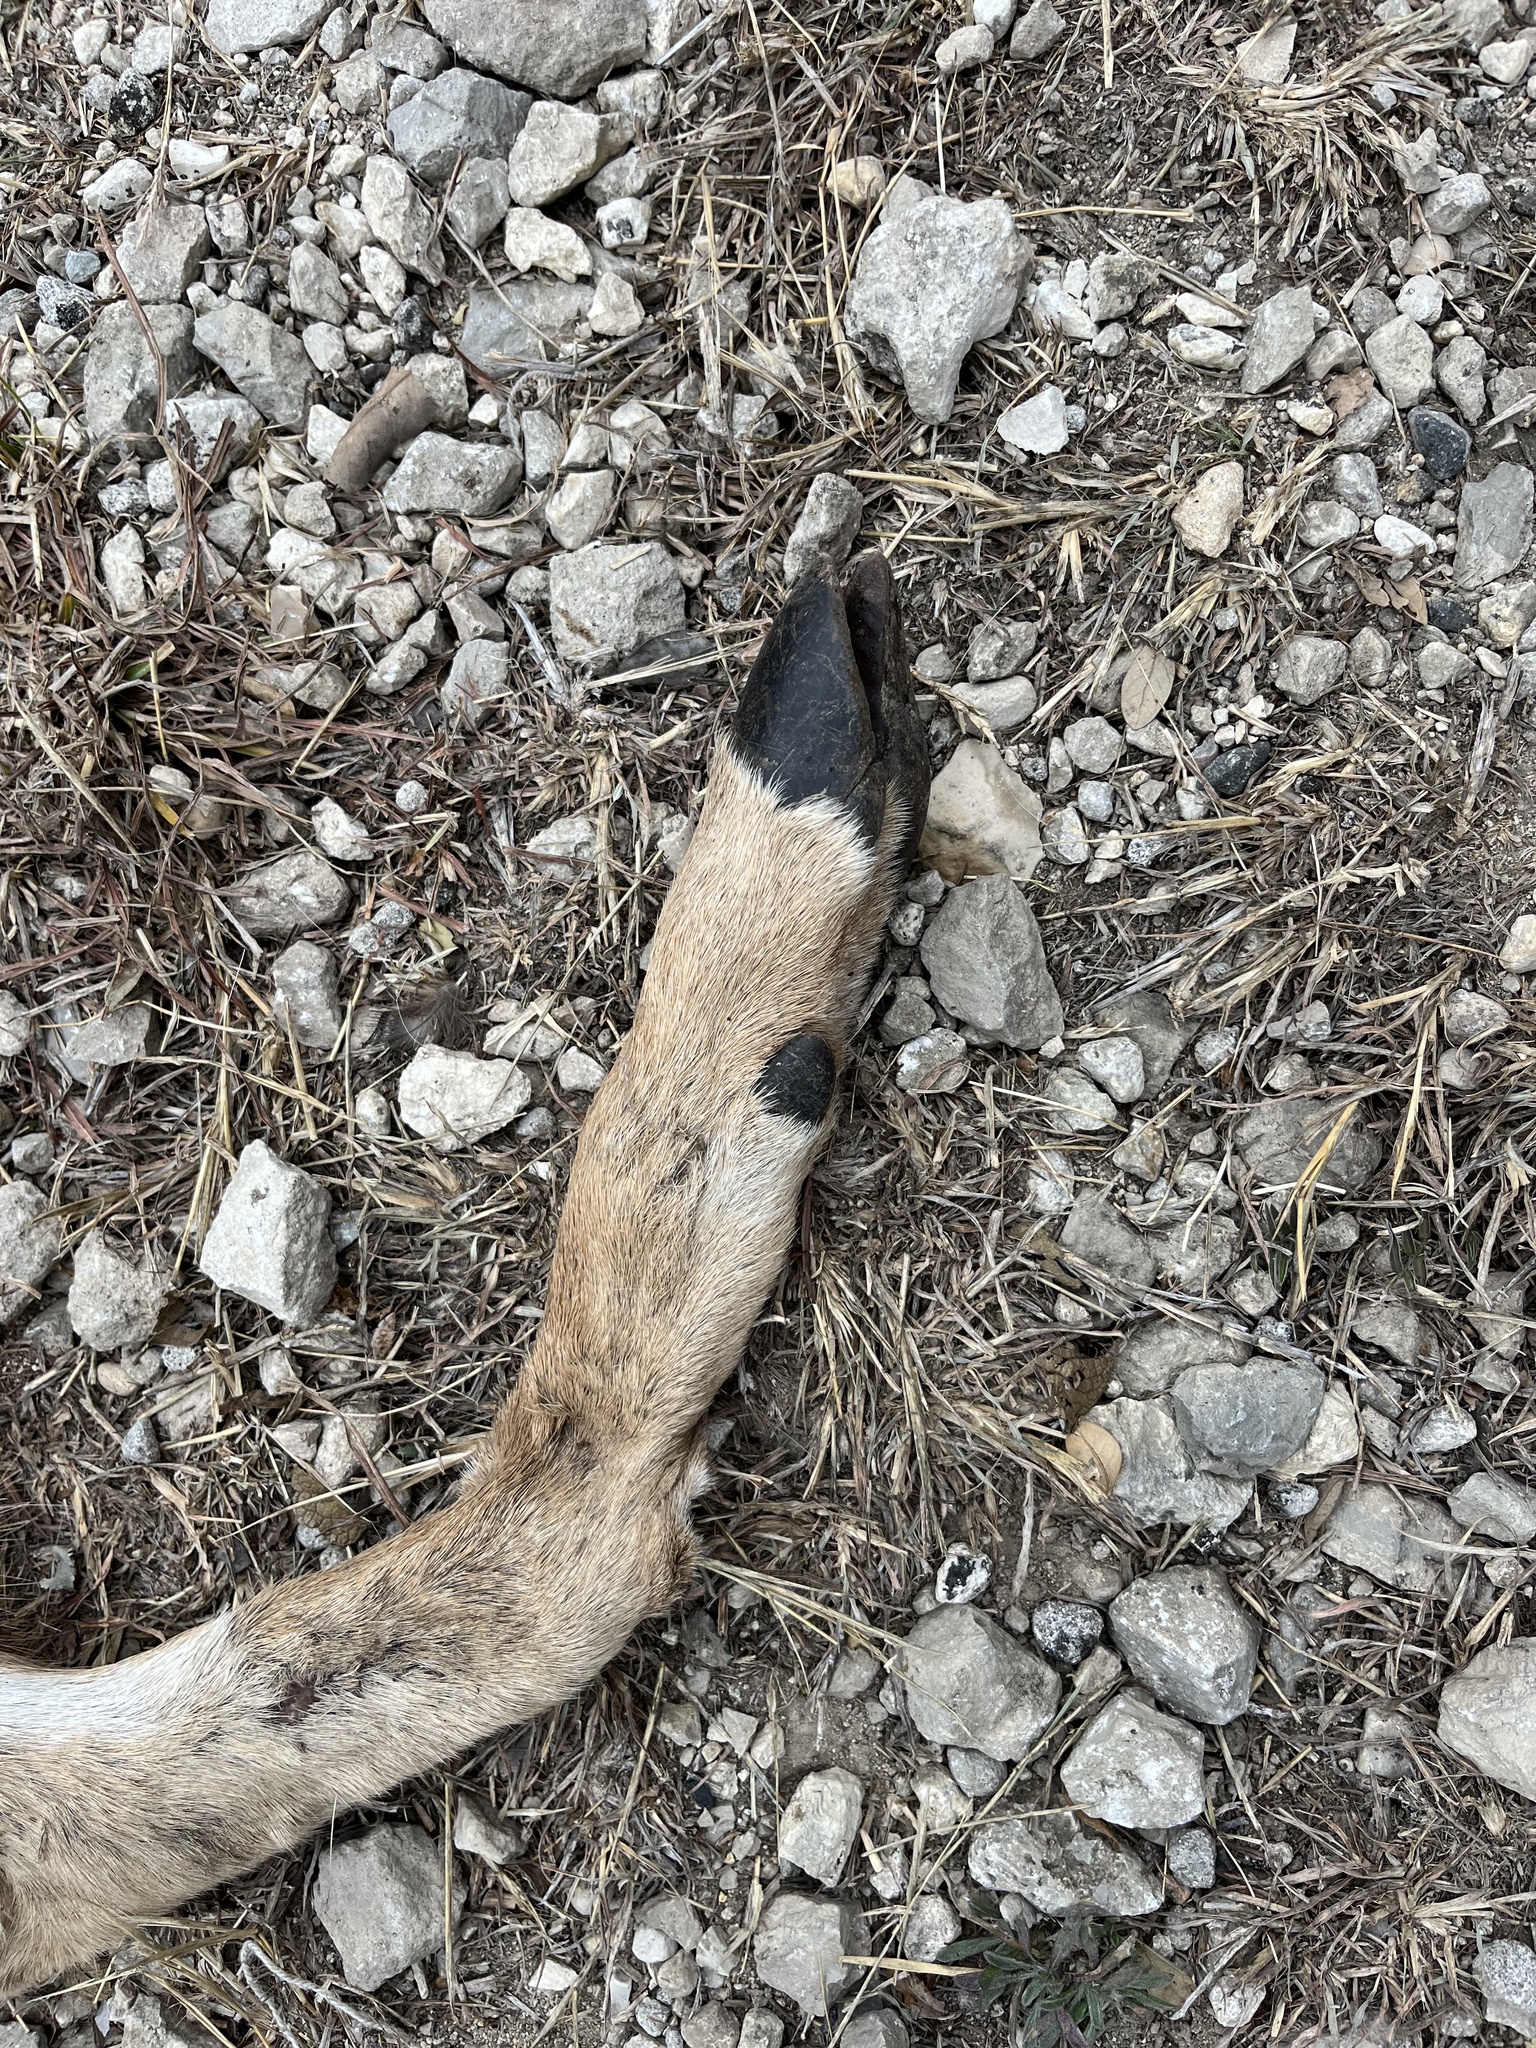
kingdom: Animalia
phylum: Chordata
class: Mammalia
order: Artiodactyla
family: Cervidae
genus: Odocoileus
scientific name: Odocoileus virginianus
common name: White-tailed deer
